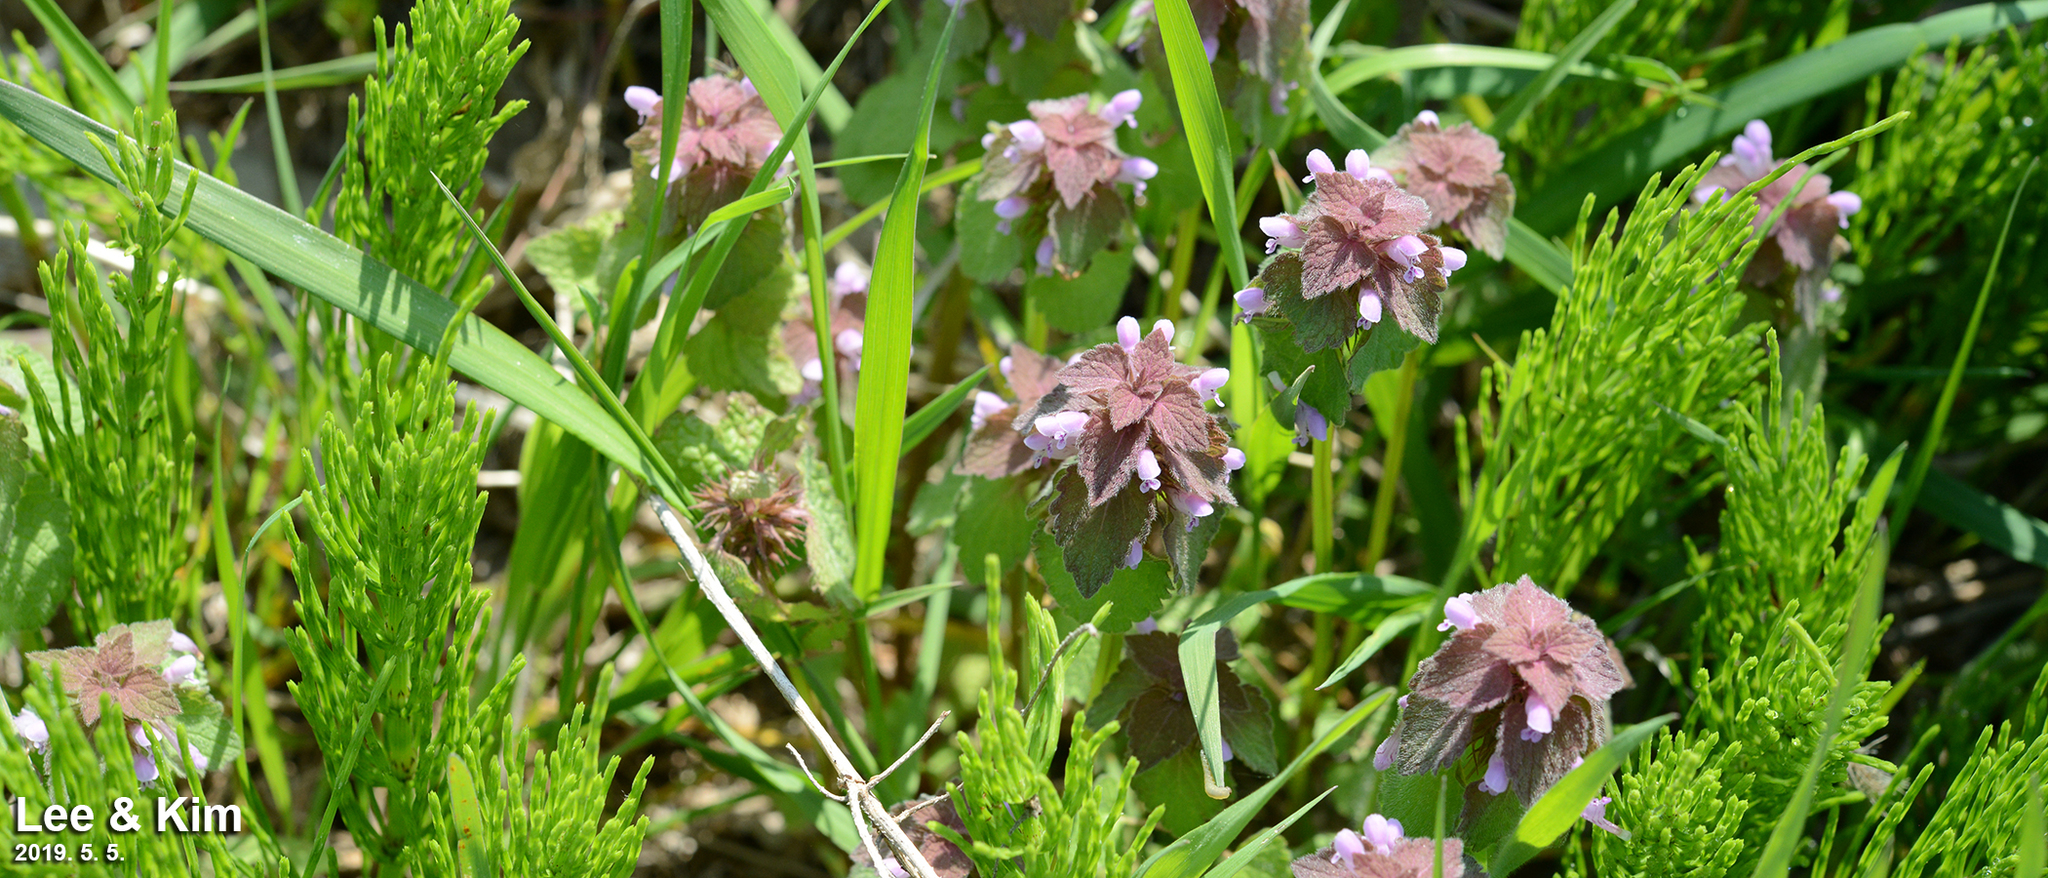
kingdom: Plantae
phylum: Tracheophyta
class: Magnoliopsida
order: Lamiales
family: Lamiaceae
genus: Lamium
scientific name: Lamium purpureum
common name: Red dead-nettle
